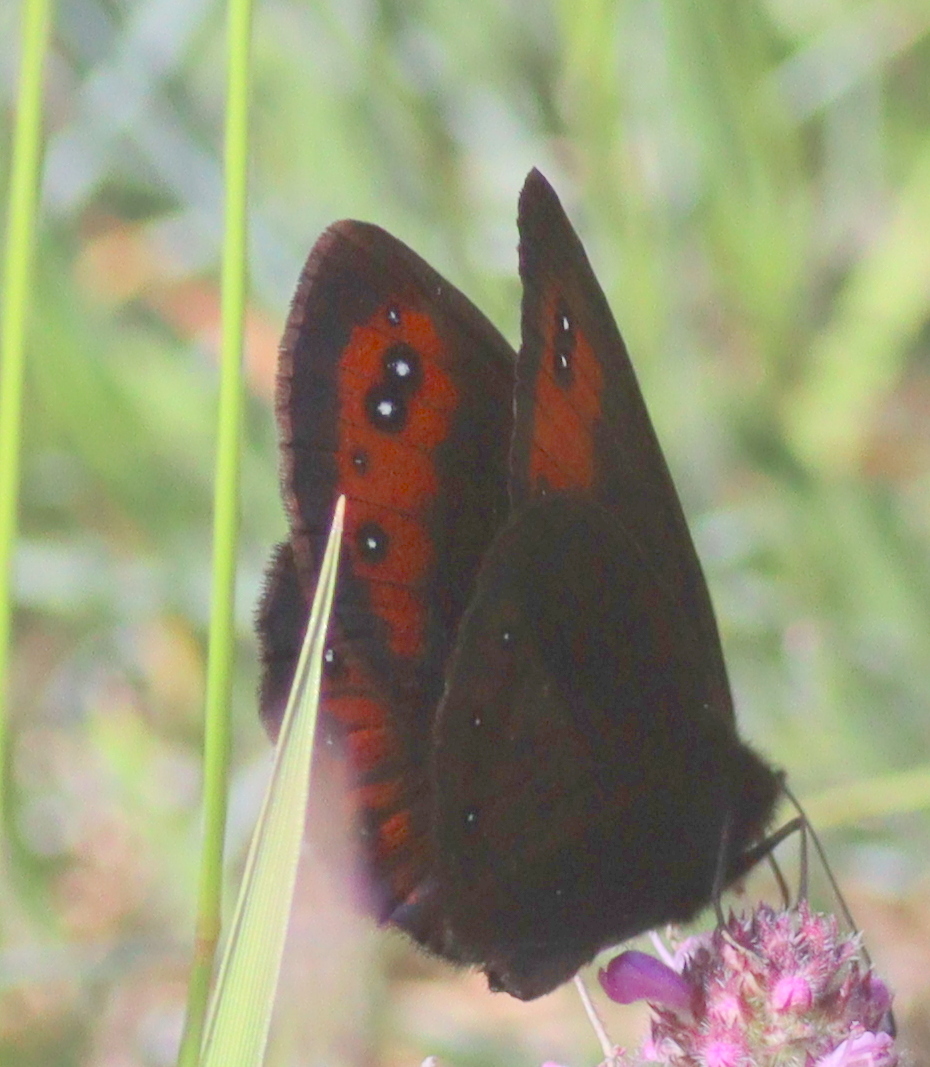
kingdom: Animalia
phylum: Arthropoda
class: Insecta
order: Lepidoptera
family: Nymphalidae
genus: Erebia
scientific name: Erebia meolans
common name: Piedmont ringlet
